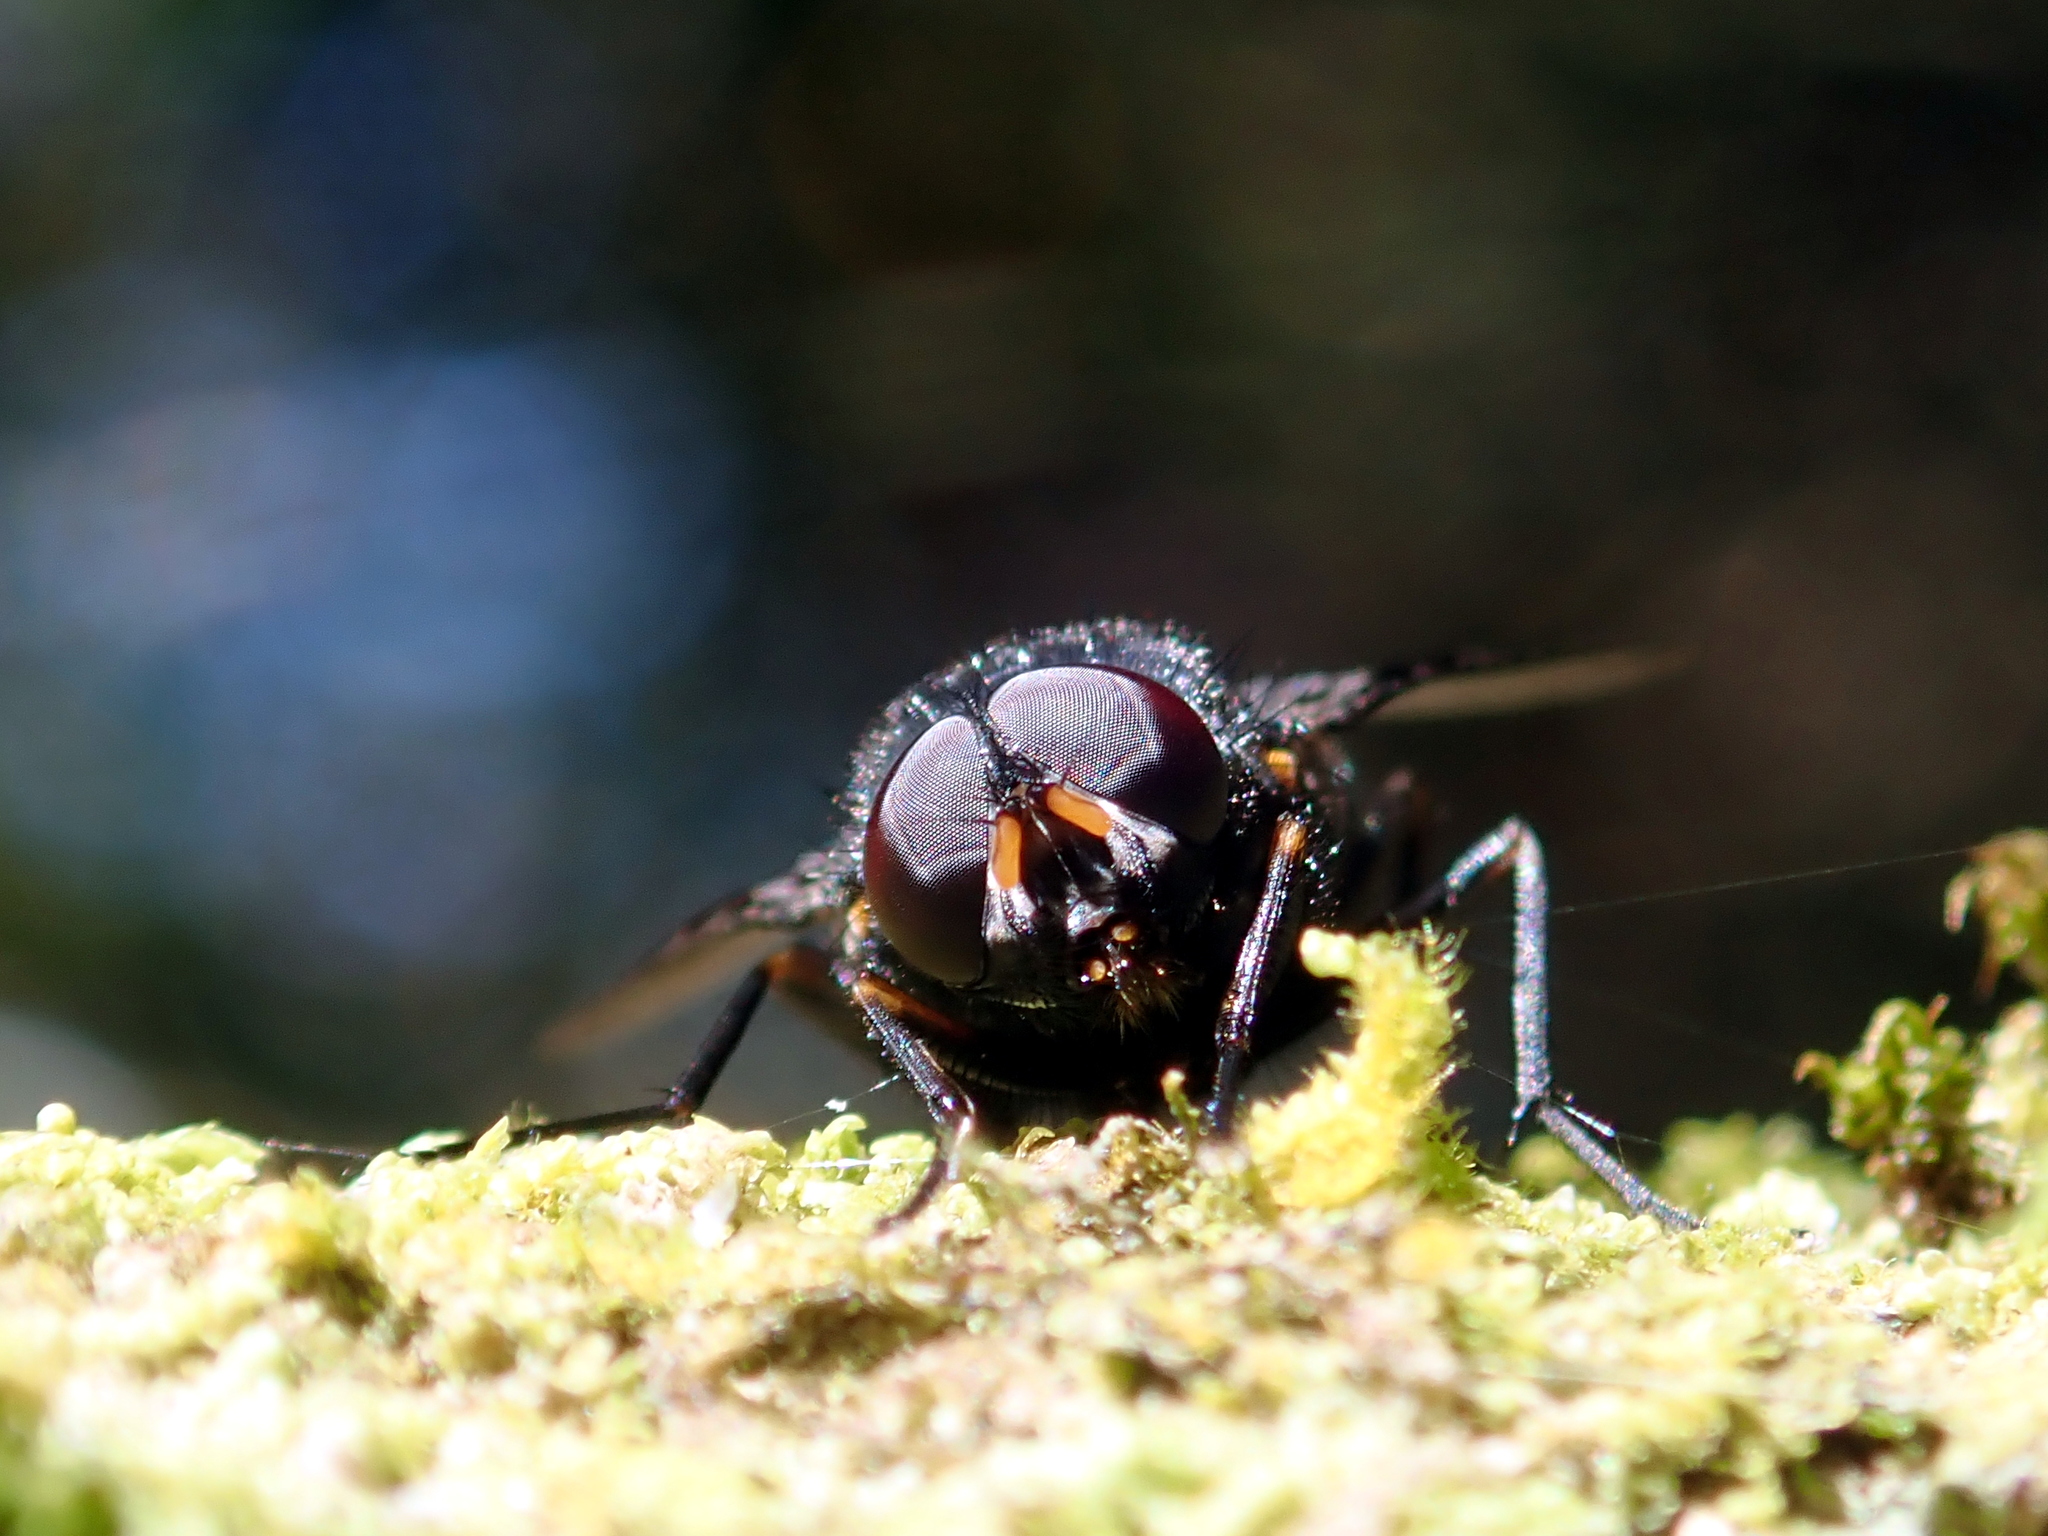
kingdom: Animalia
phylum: Arthropoda
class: Insecta
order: Diptera
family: Muscidae
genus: Calliphoroides
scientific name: Calliphoroides antennatis
